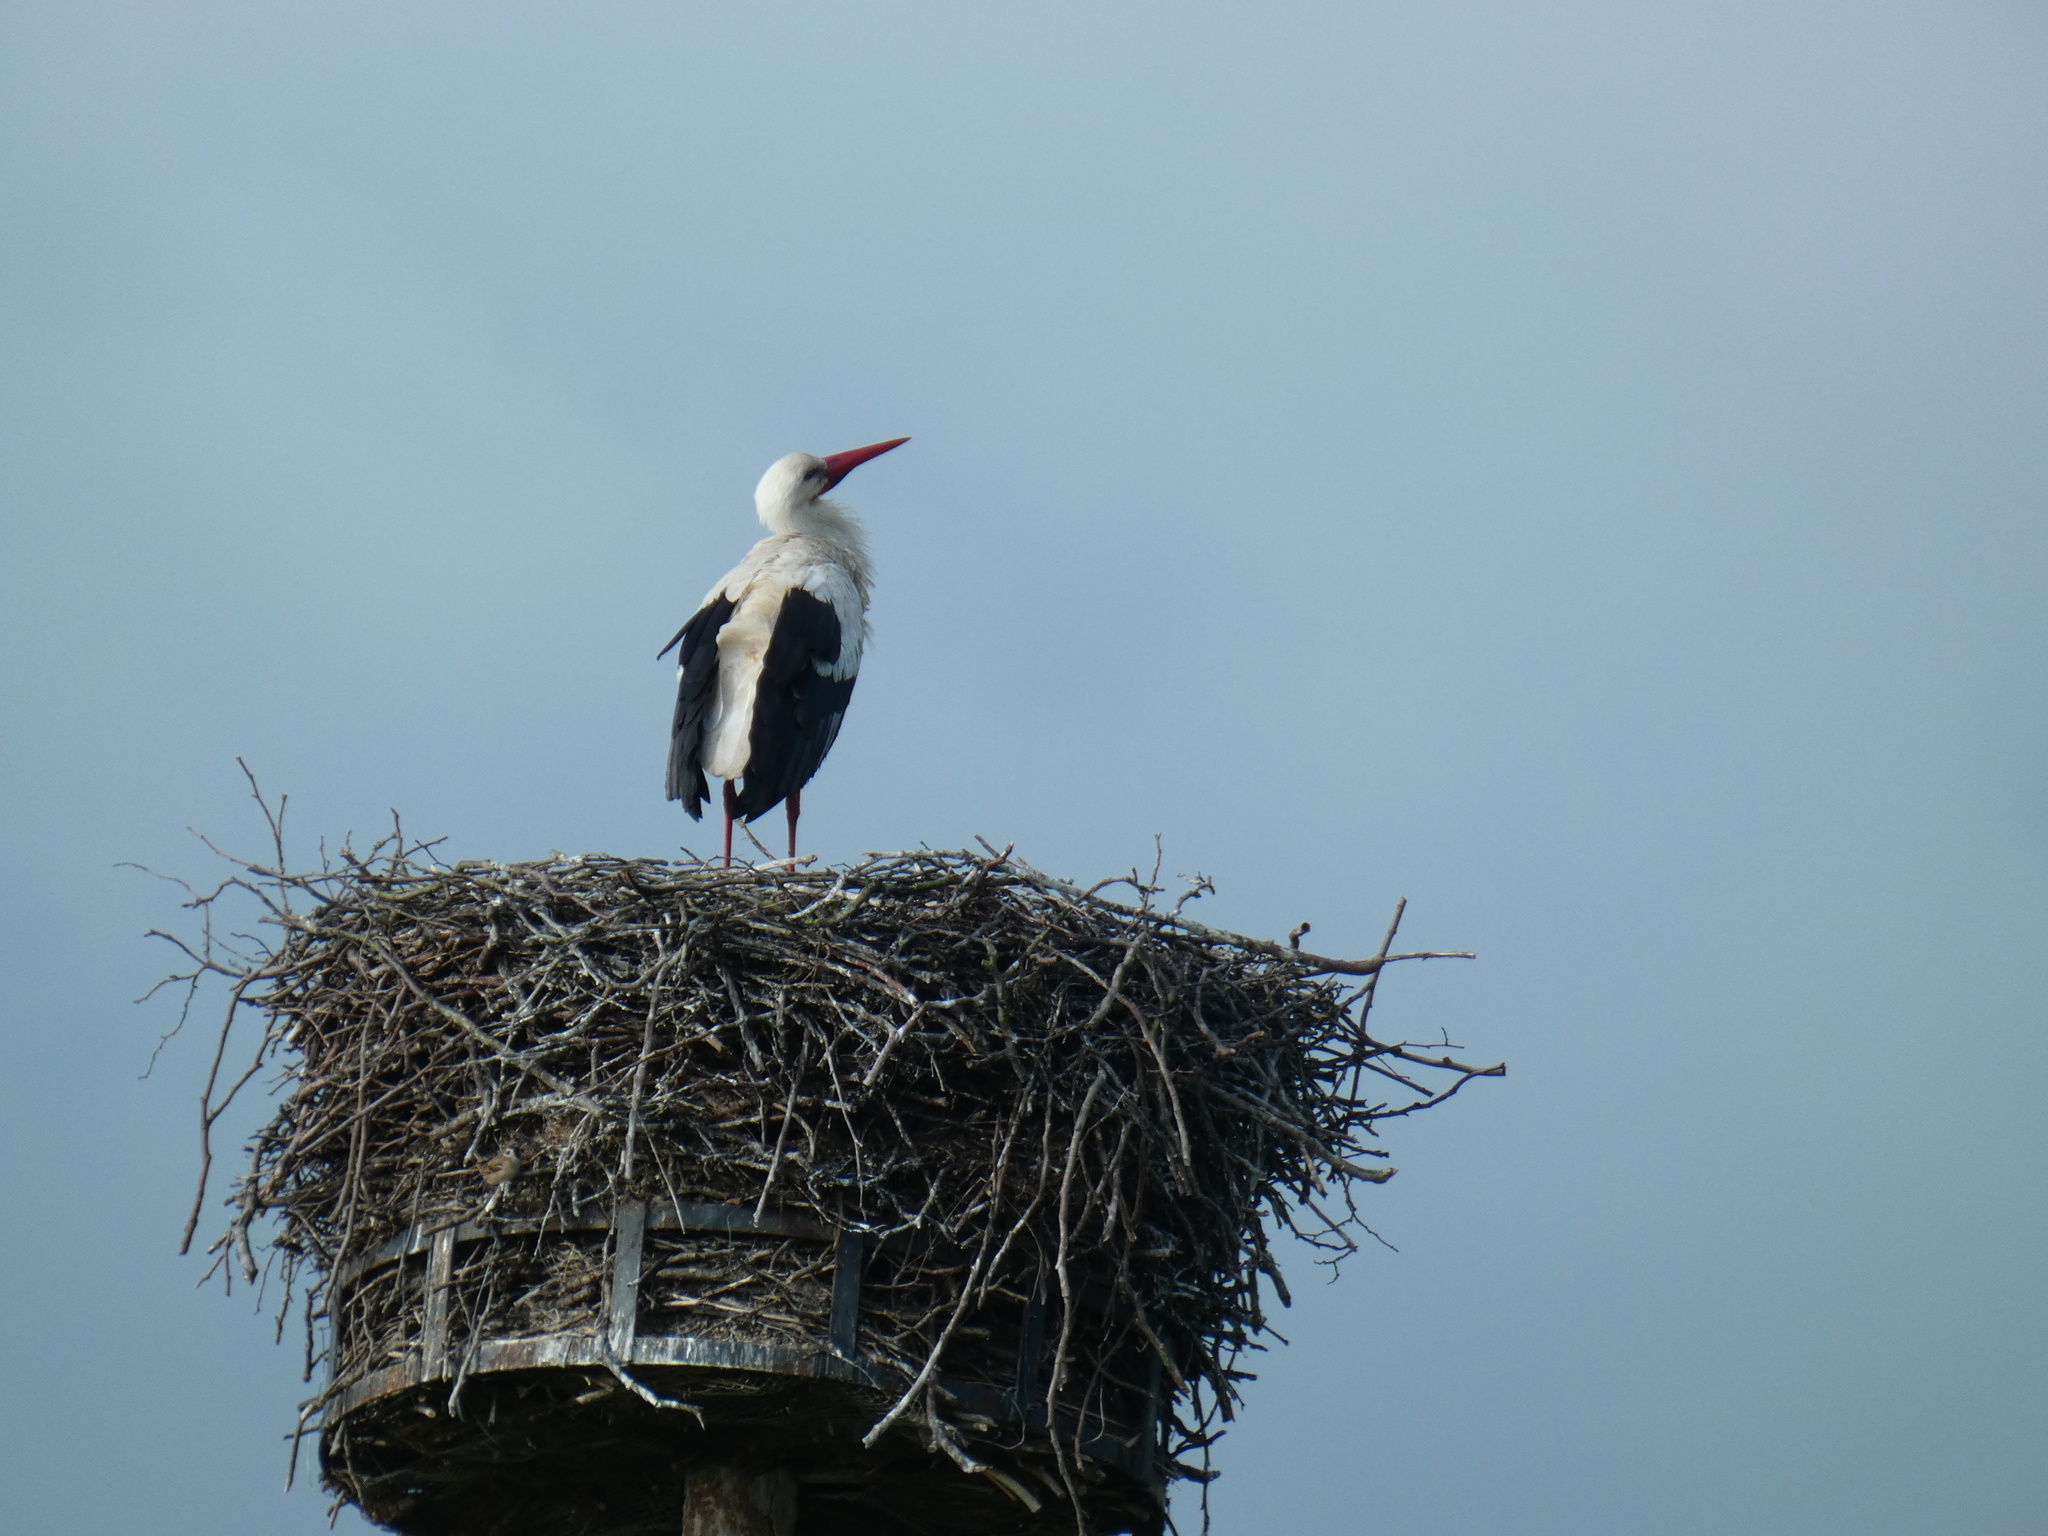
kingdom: Animalia
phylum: Chordata
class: Aves
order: Passeriformes
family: Passeridae
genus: Passer
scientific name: Passer montanus
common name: Eurasian tree sparrow
